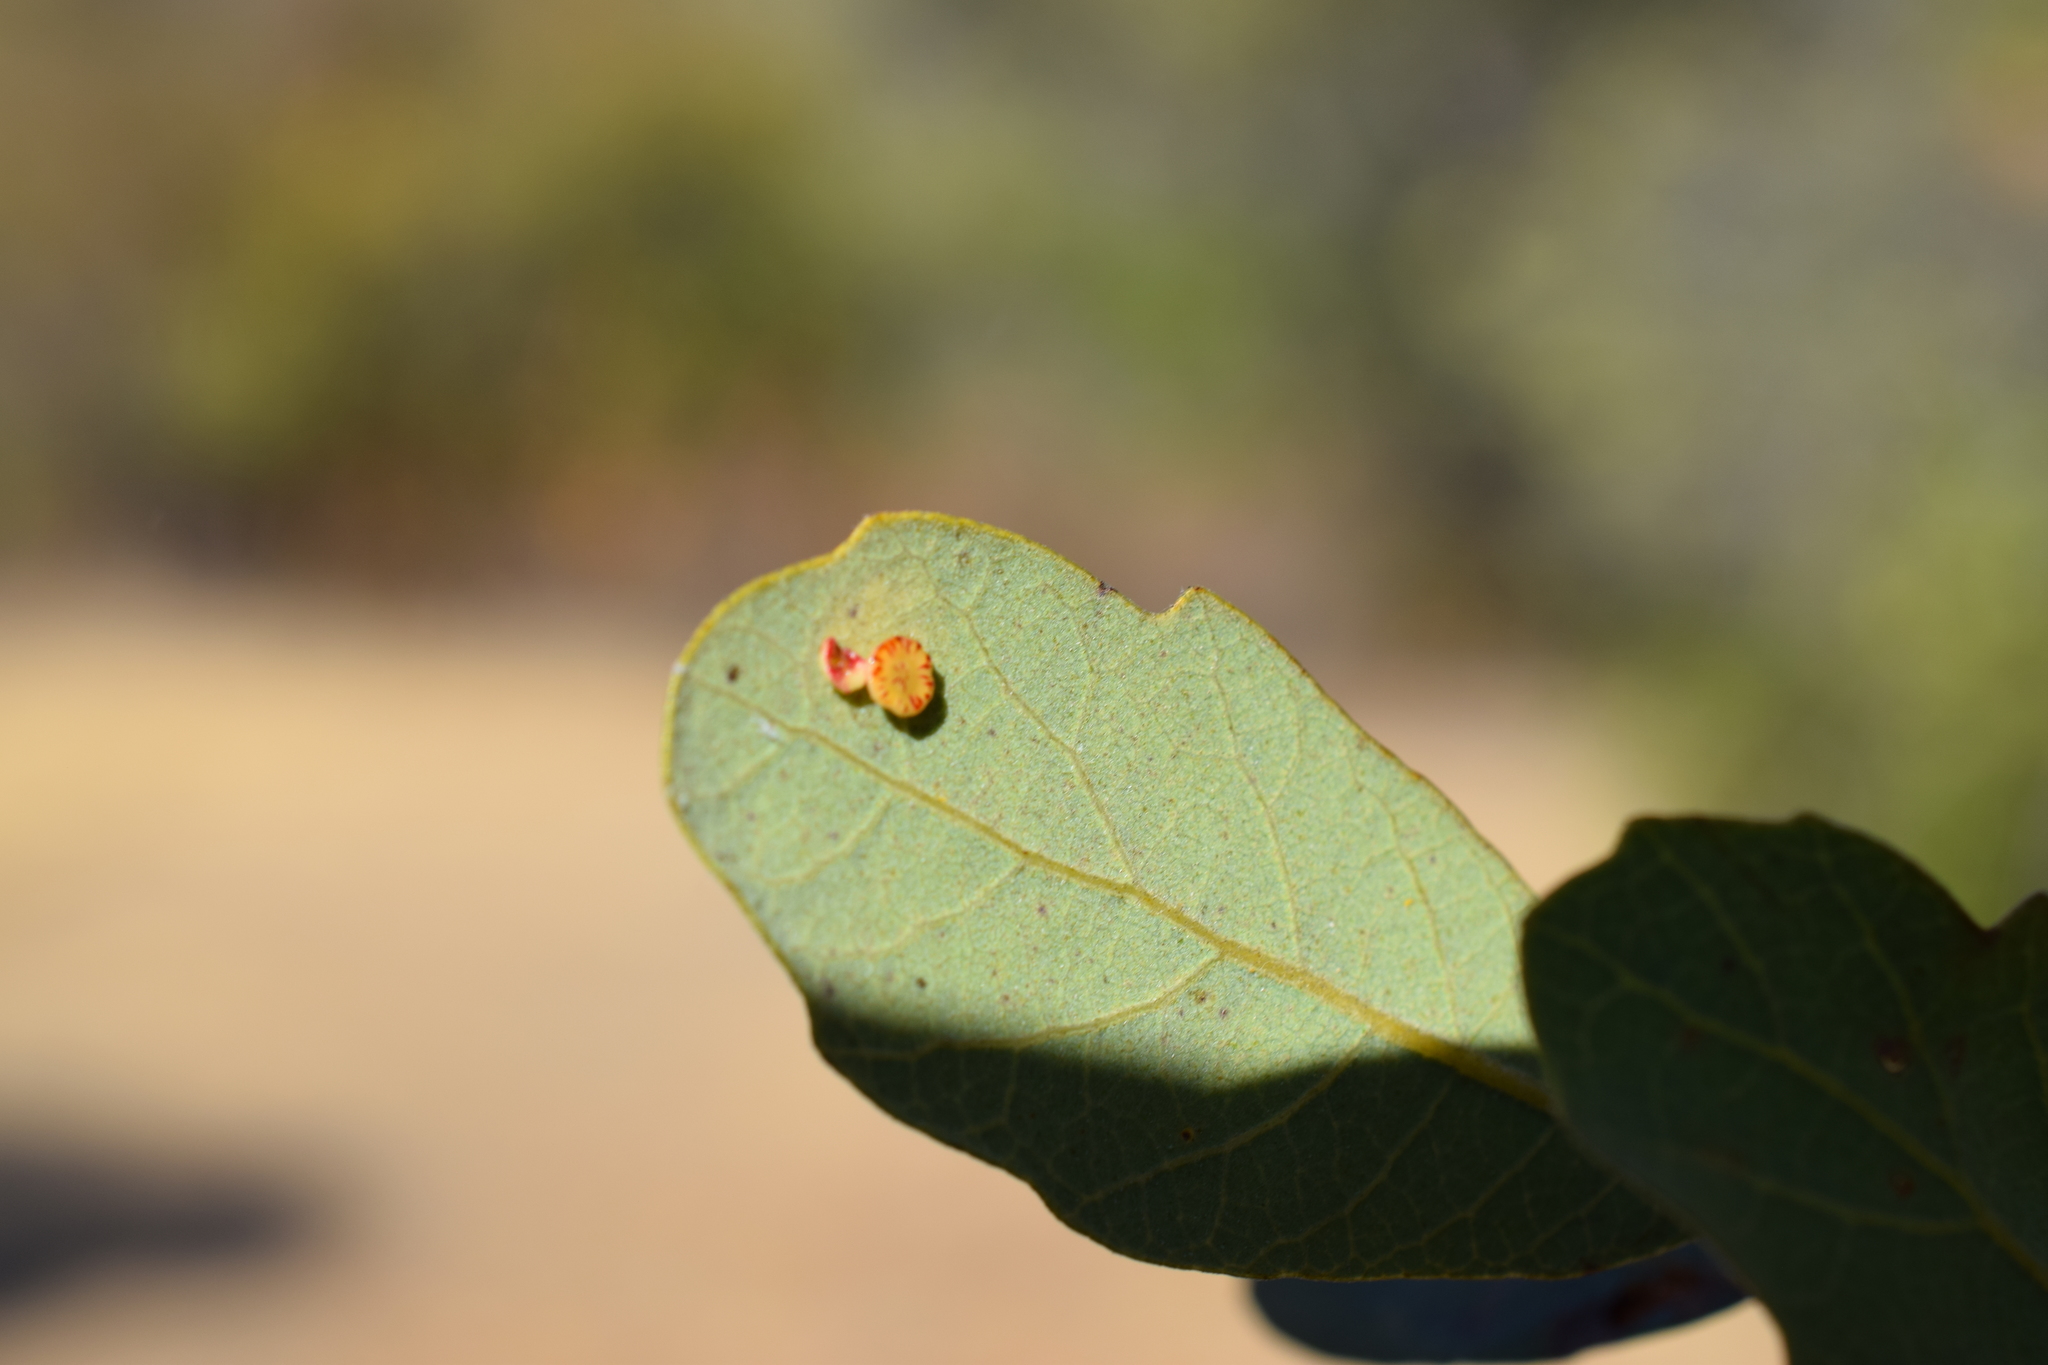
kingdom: Animalia
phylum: Arthropoda
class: Insecta
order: Hymenoptera
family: Cynipidae
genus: Andricus
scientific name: Andricus
